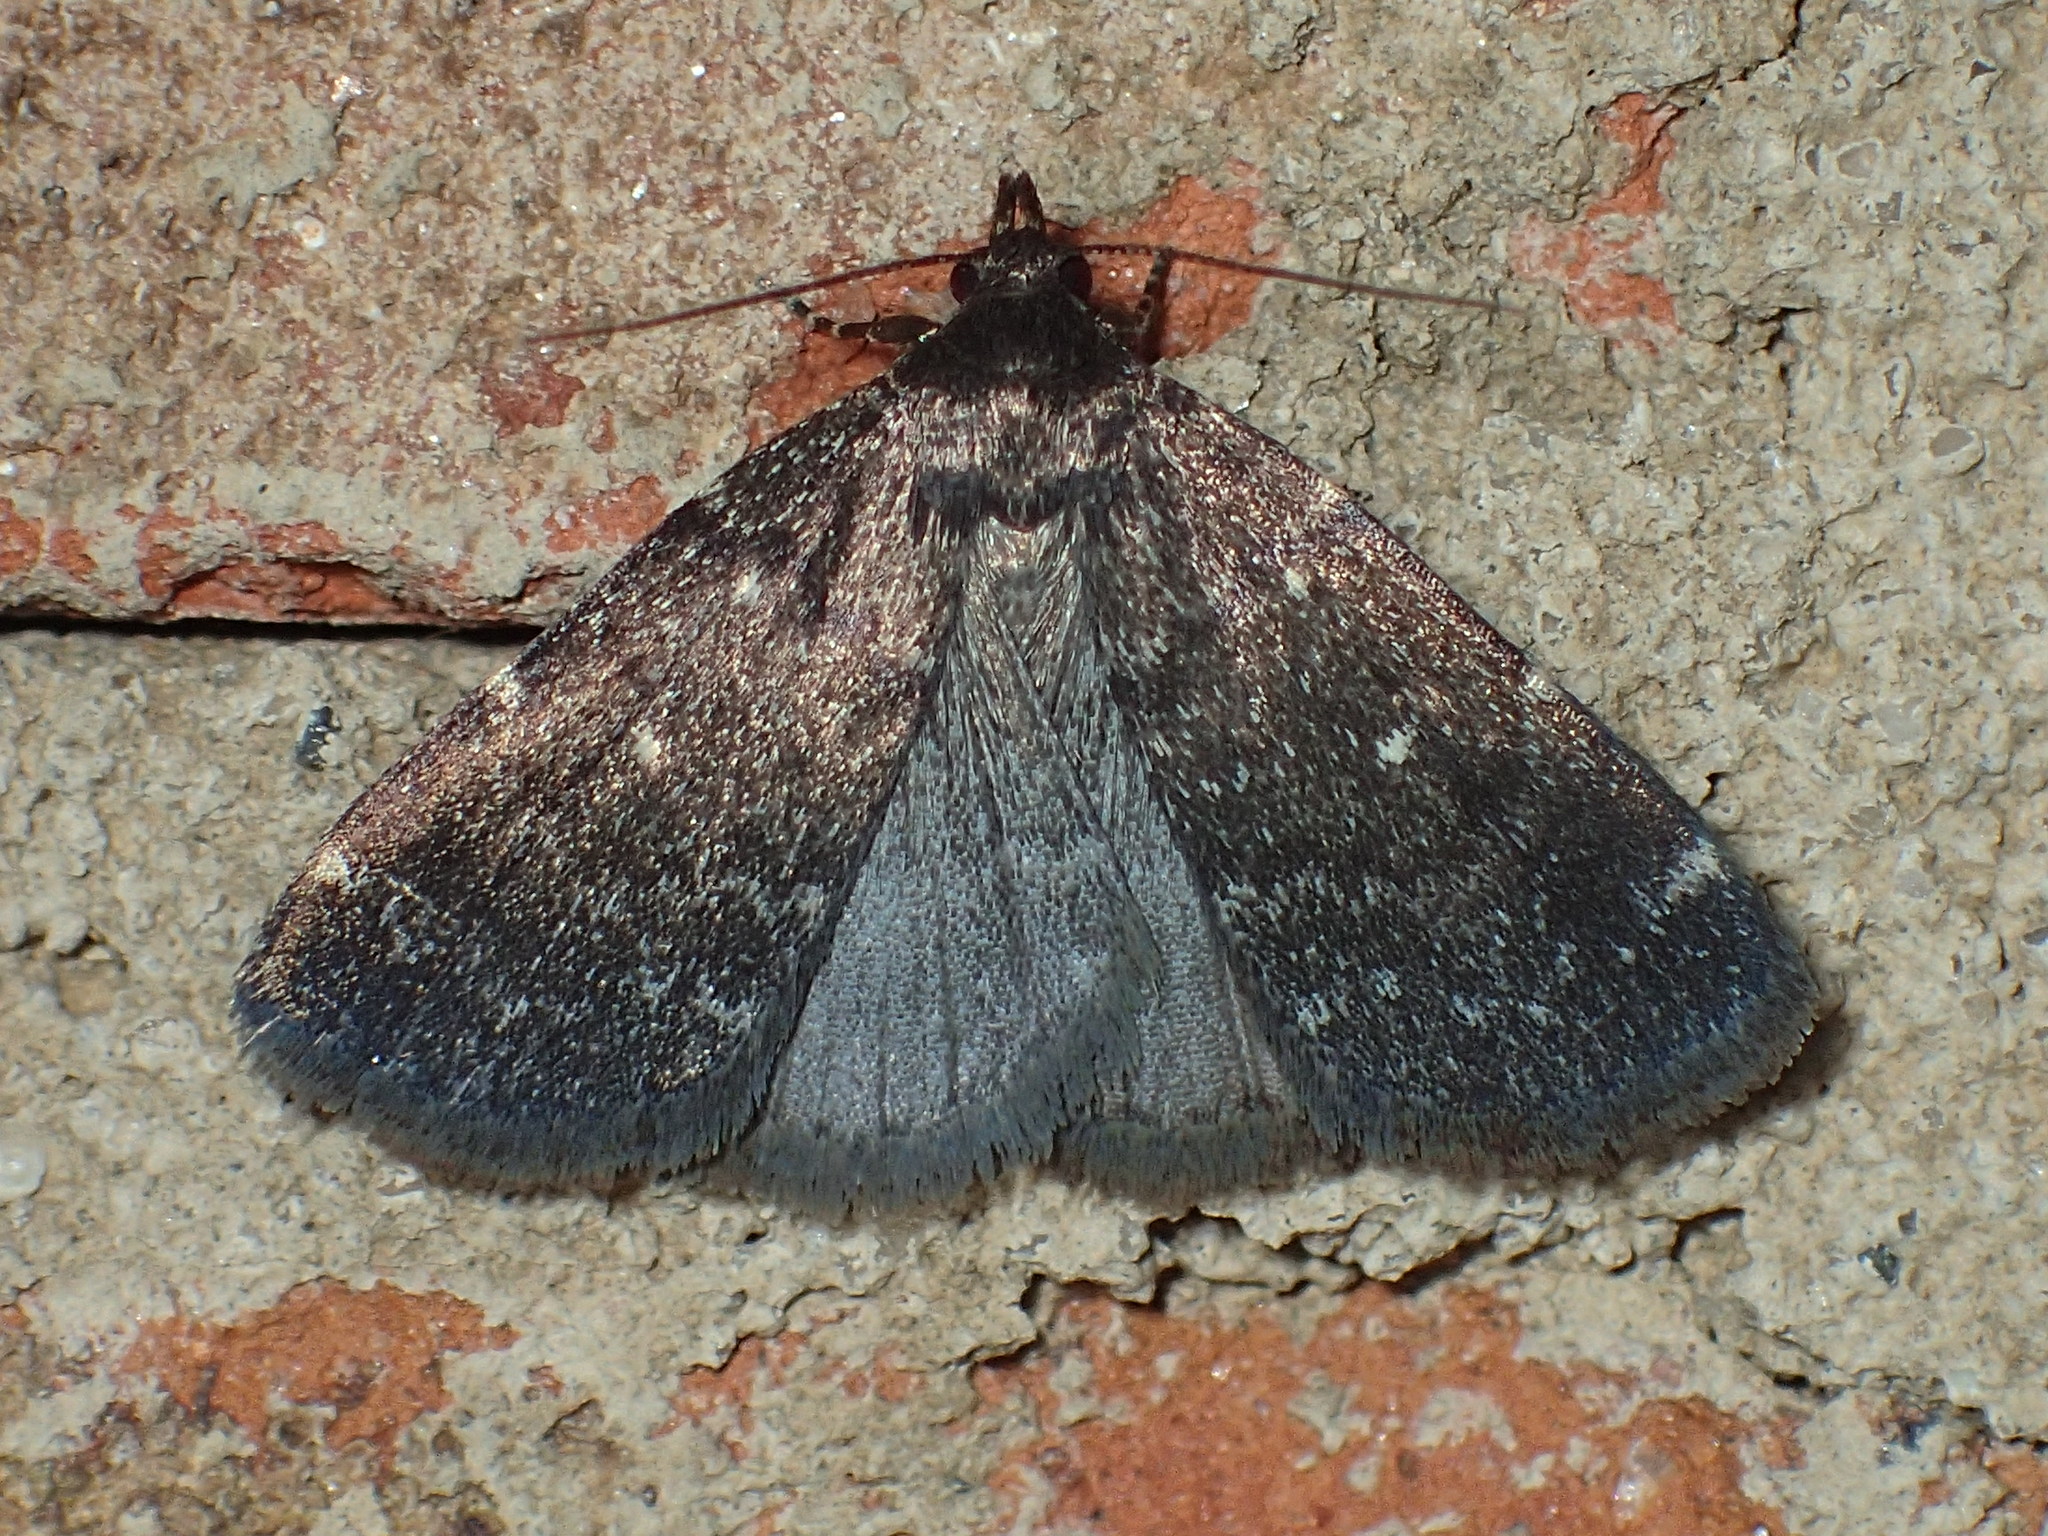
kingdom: Animalia
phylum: Arthropoda
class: Insecta
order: Lepidoptera
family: Erebidae
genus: Idia
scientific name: Idia julia
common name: Julia's idia moth
